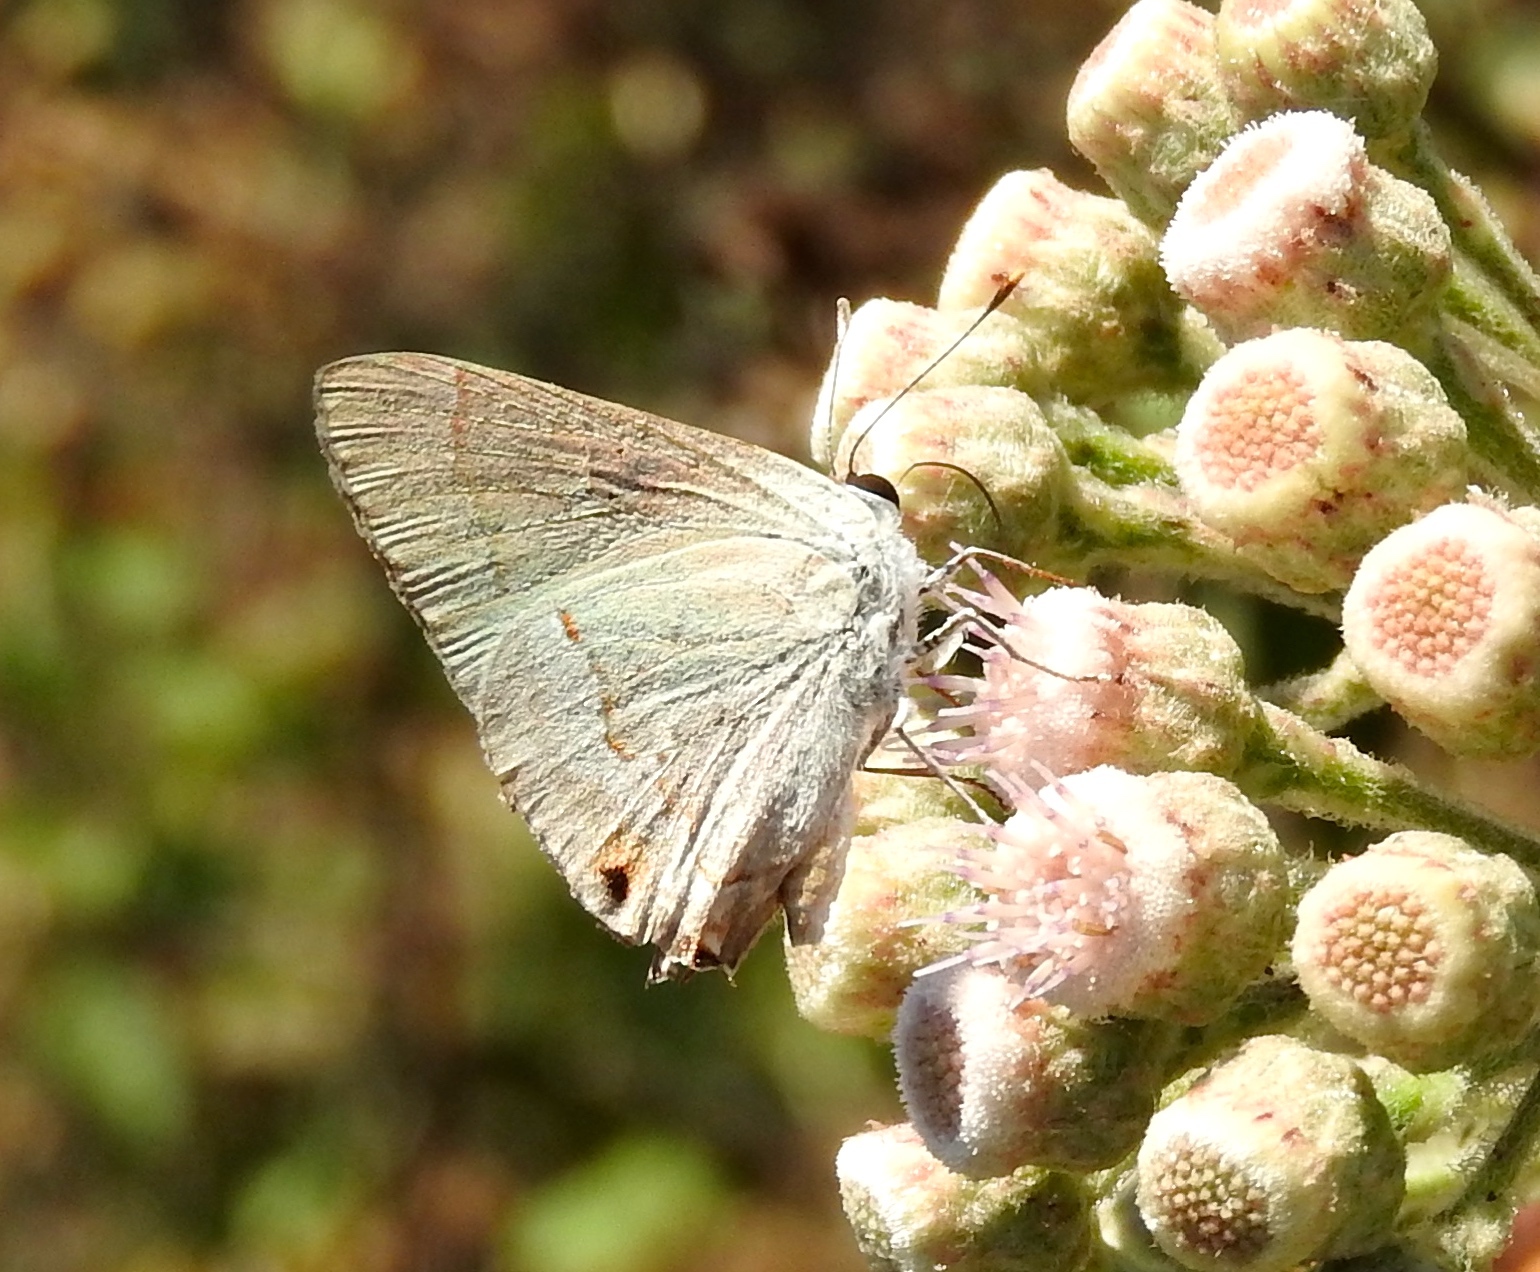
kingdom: Animalia
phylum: Arthropoda
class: Insecta
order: Lepidoptera
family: Lycaenidae
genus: Thecla
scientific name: Thecla bebrycia
